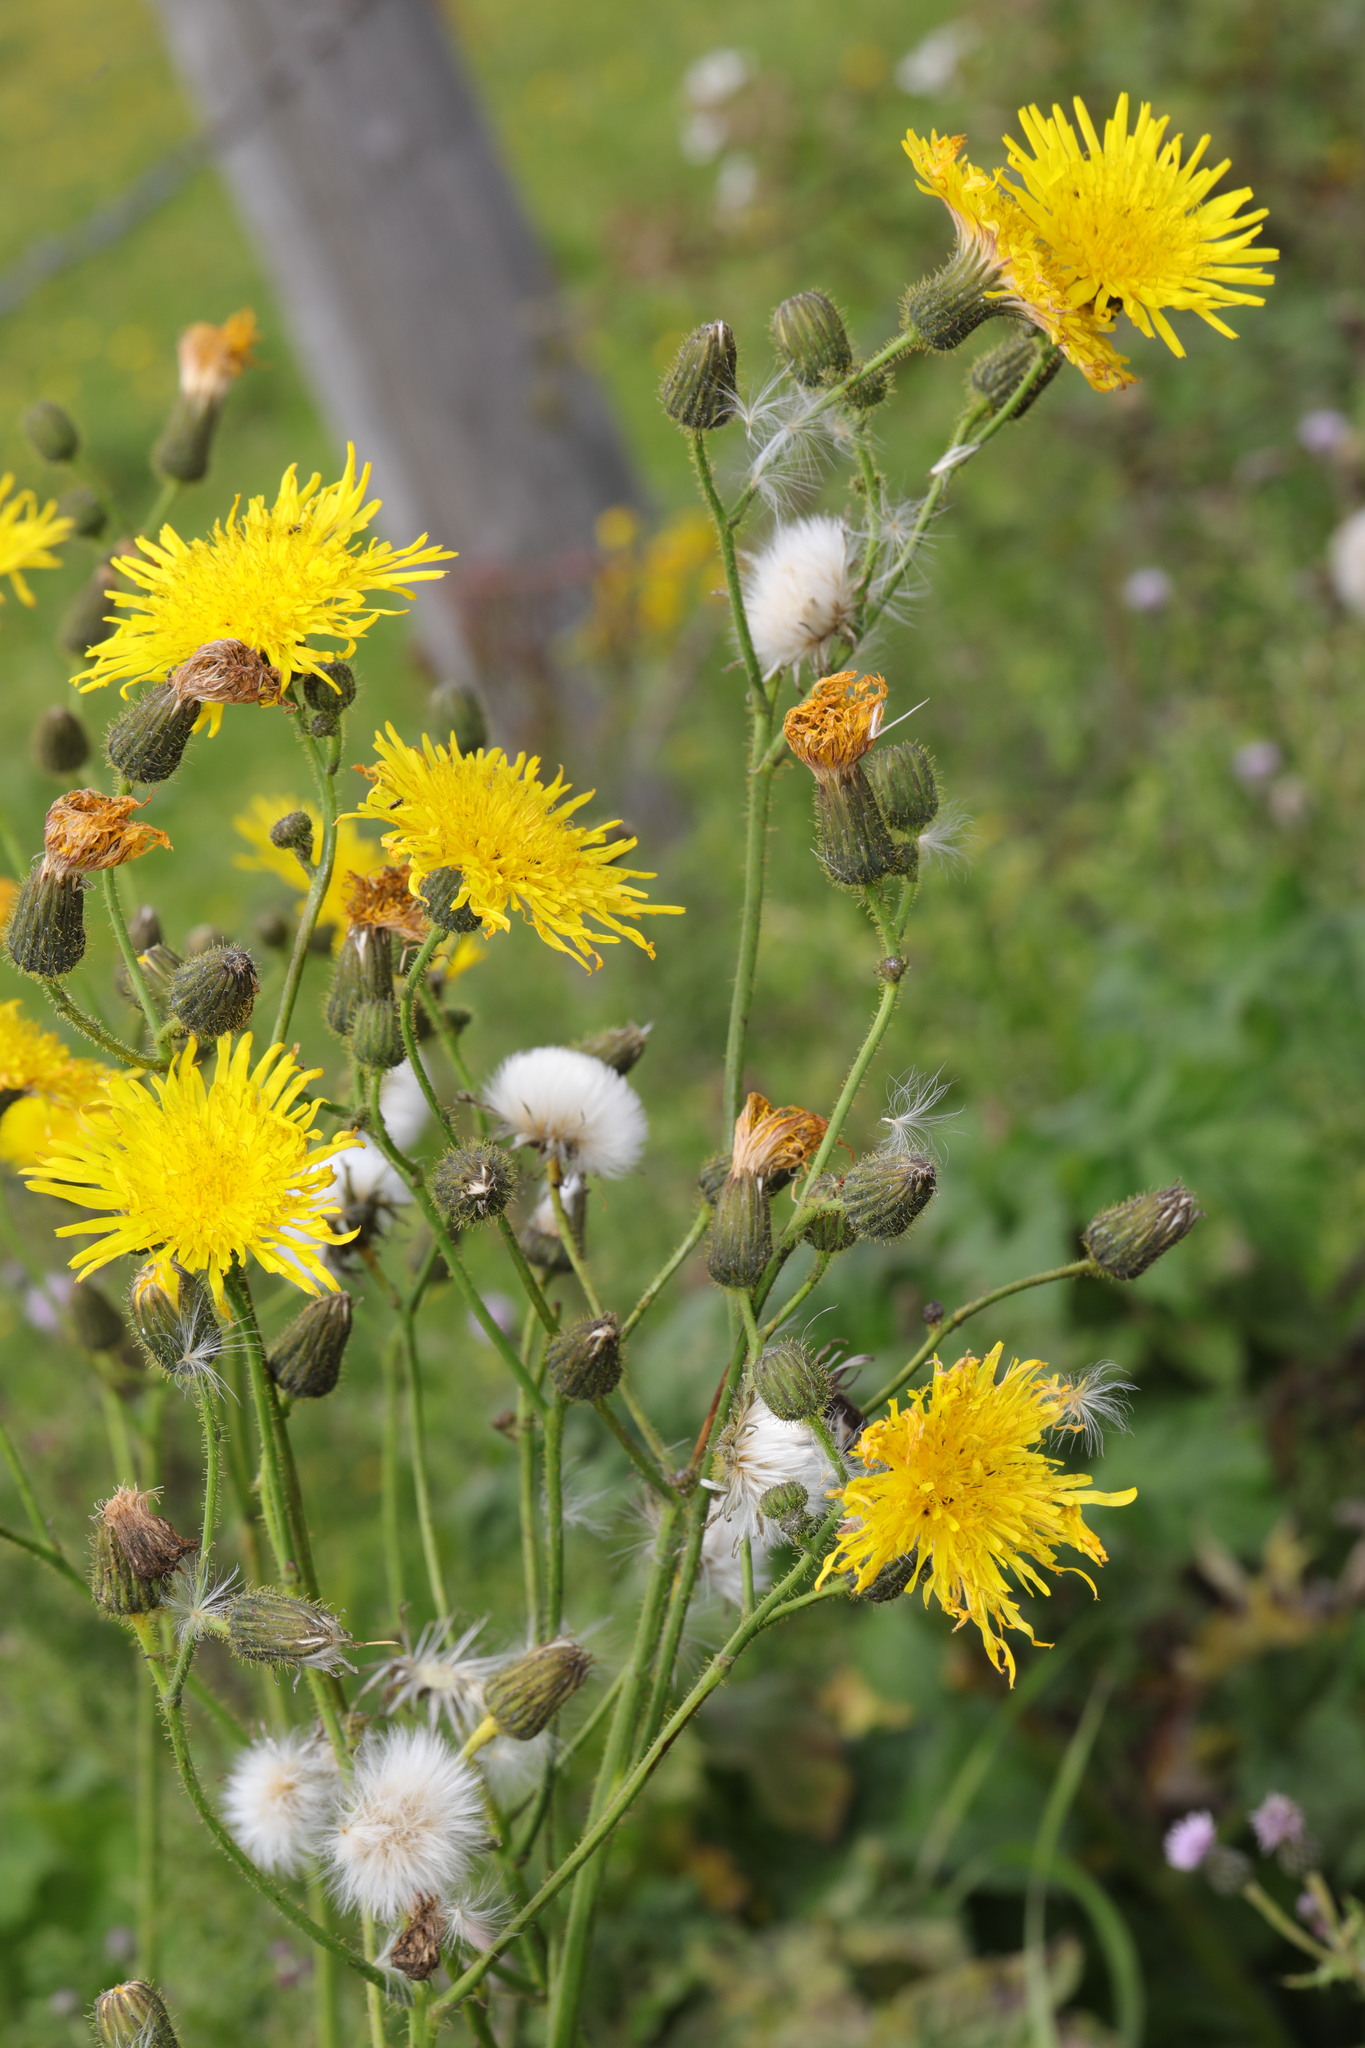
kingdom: Plantae
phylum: Tracheophyta
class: Magnoliopsida
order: Asterales
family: Asteraceae
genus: Sonchus
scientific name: Sonchus arvensis
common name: Perennial sow-thistle
